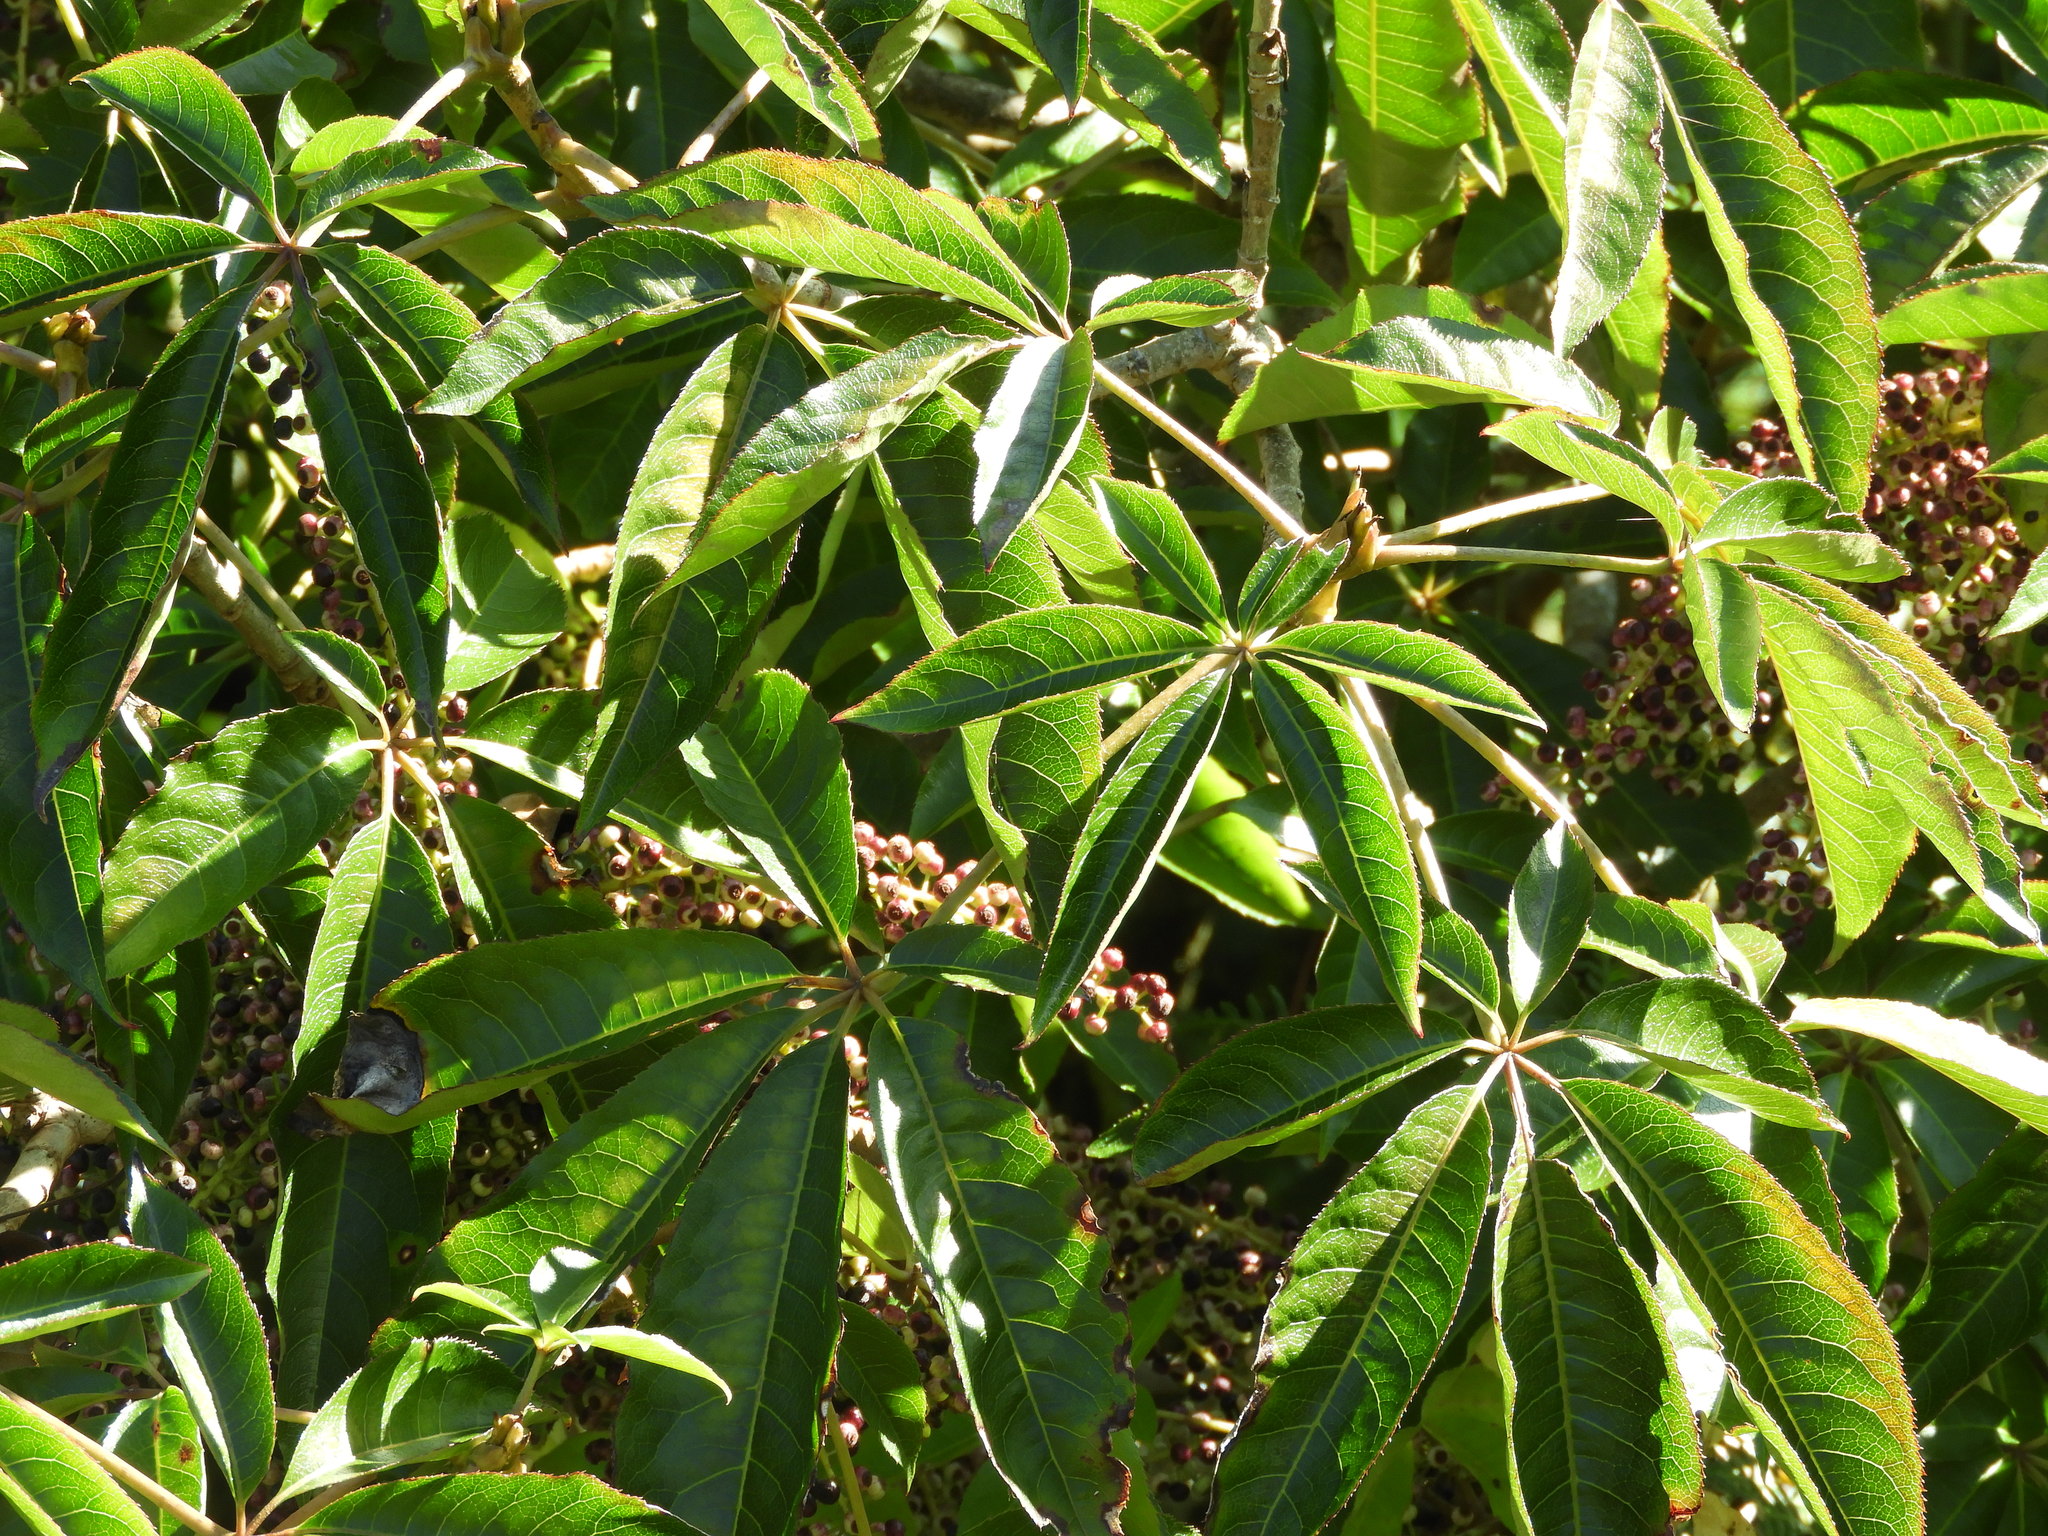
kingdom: Plantae
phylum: Tracheophyta
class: Magnoliopsida
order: Apiales
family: Araliaceae
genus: Schefflera
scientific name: Schefflera digitata
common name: Pate
